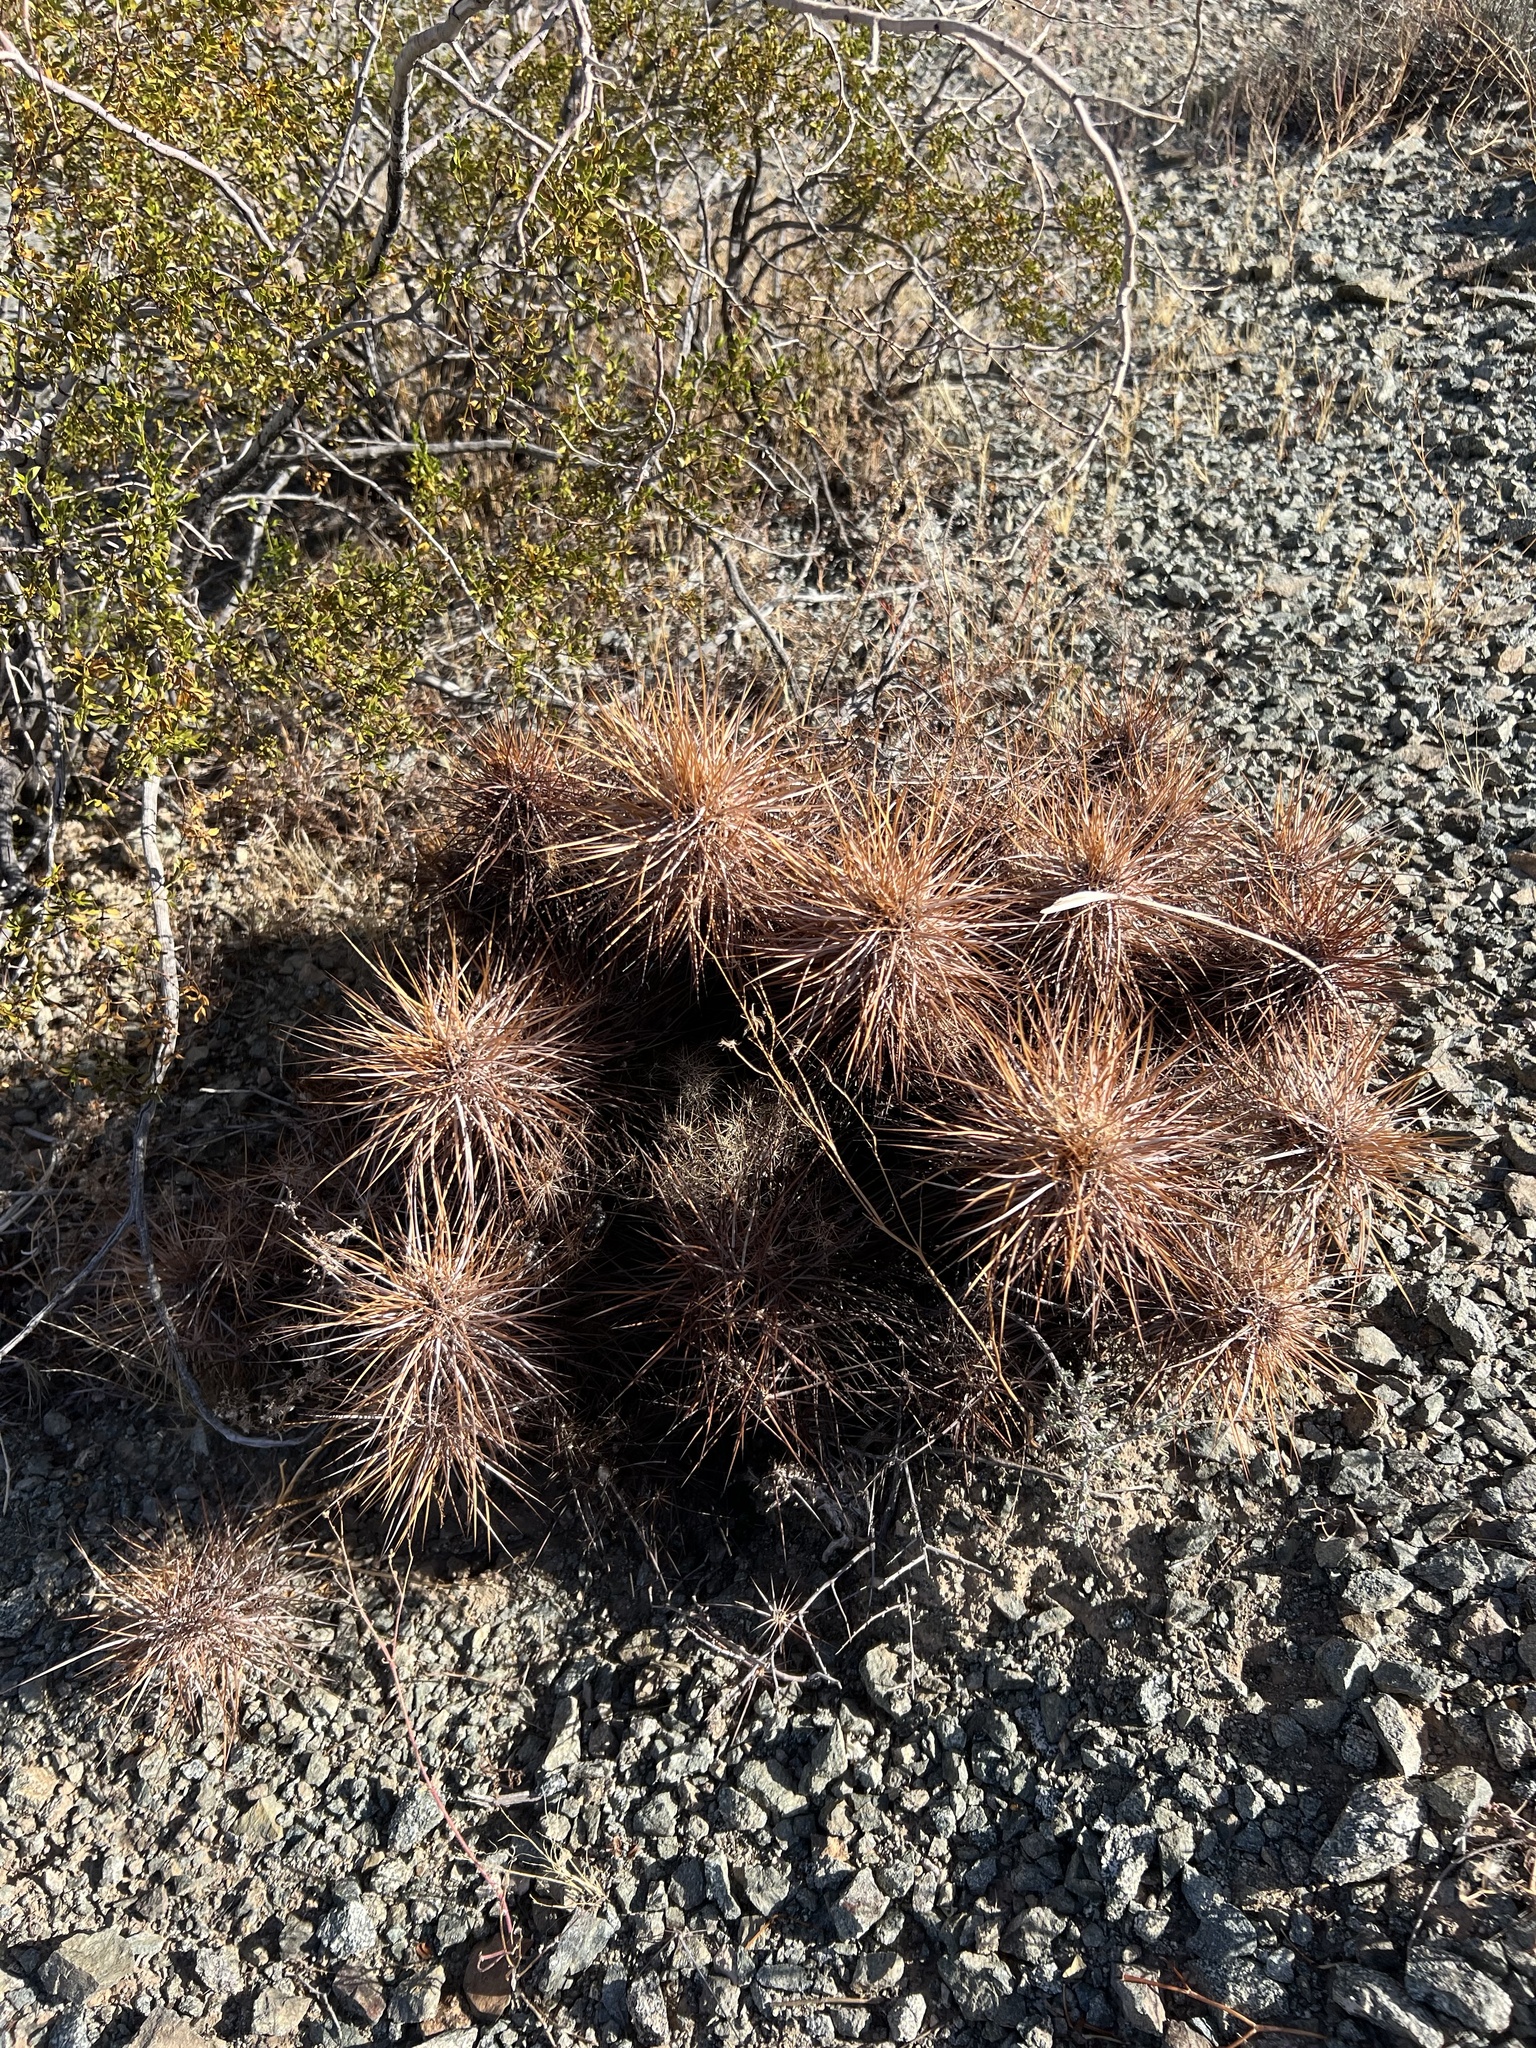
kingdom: Plantae
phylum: Tracheophyta
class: Magnoliopsida
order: Caryophyllales
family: Cactaceae
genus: Echinocereus
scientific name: Echinocereus engelmannii
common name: Engelmann's hedgehog cactus
